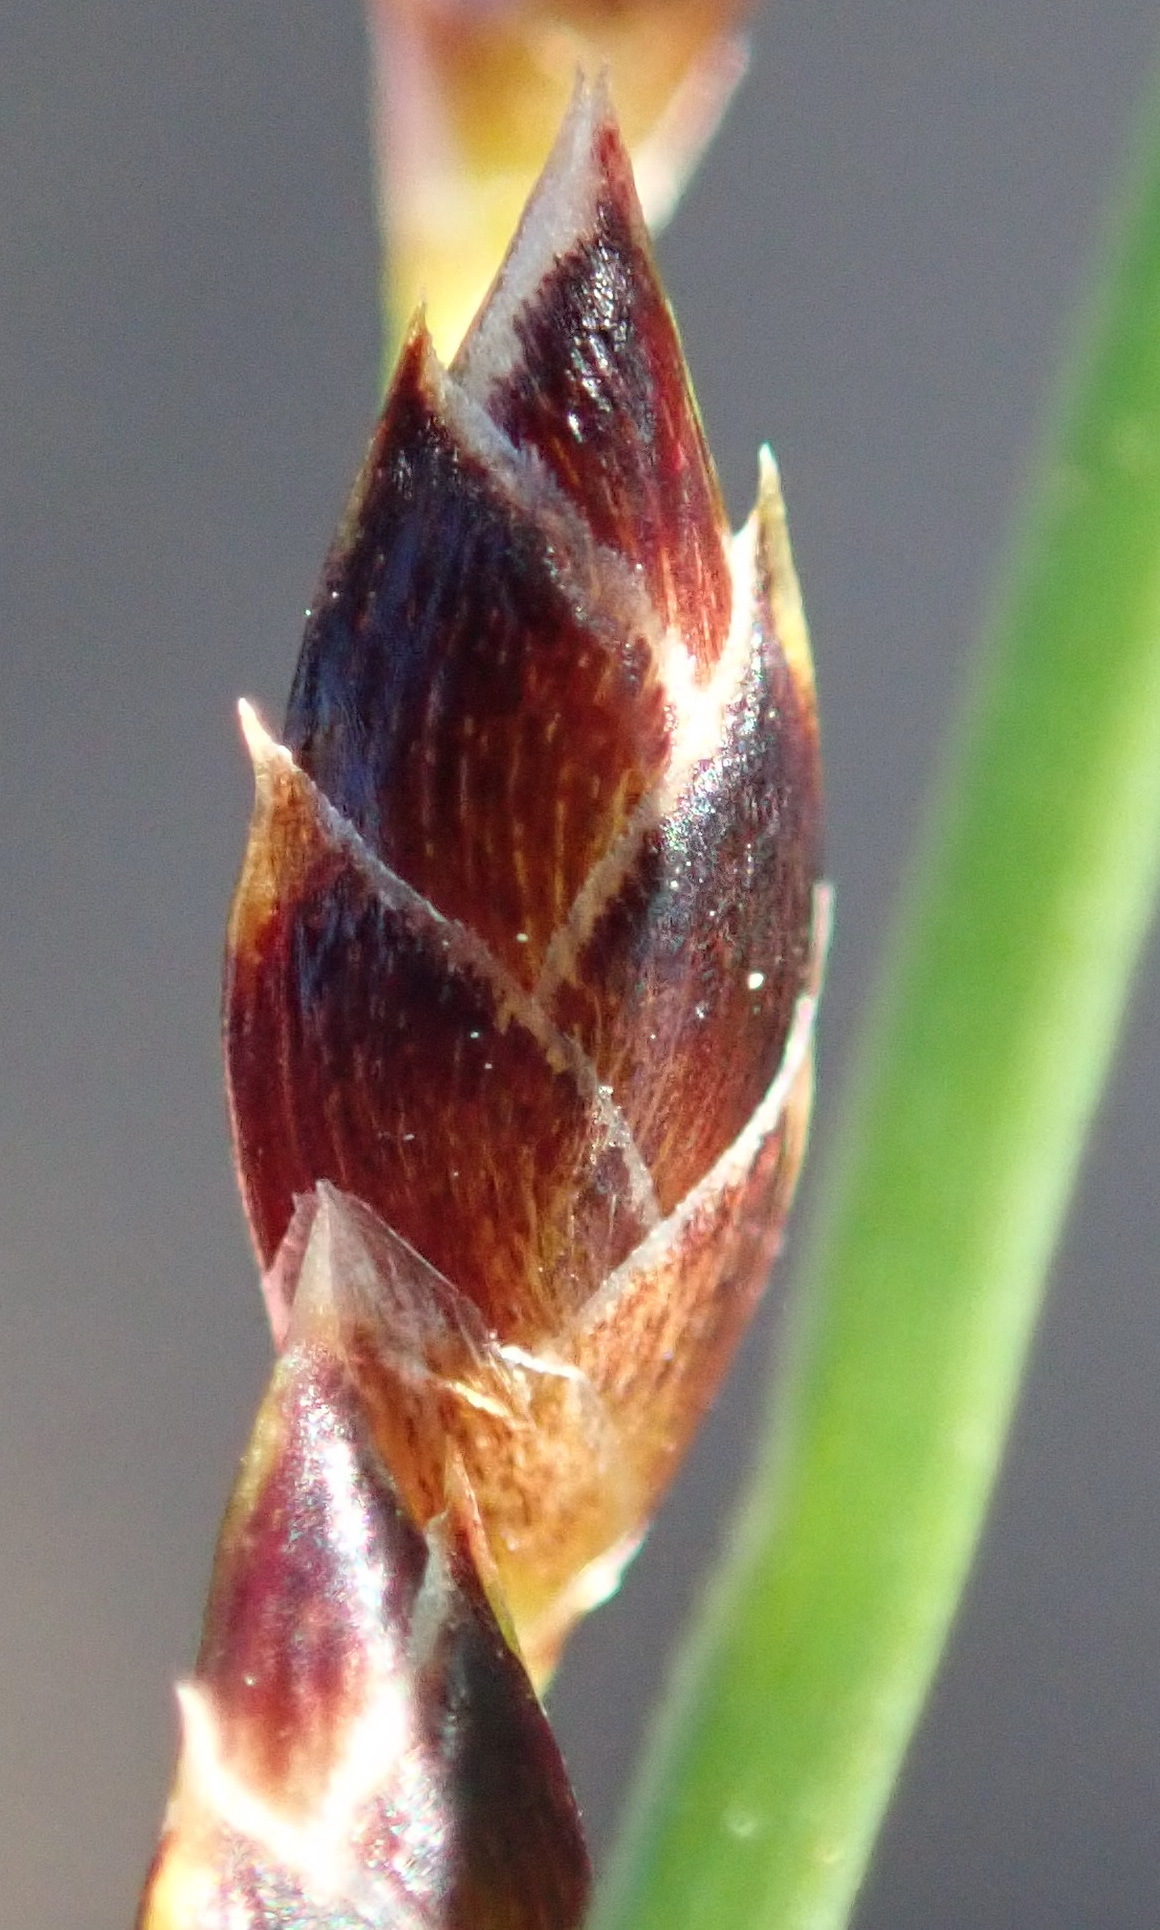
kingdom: Plantae
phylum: Tracheophyta
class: Liliopsida
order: Poales
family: Cyperaceae
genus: Ficinia
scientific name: Ficinia secunda
